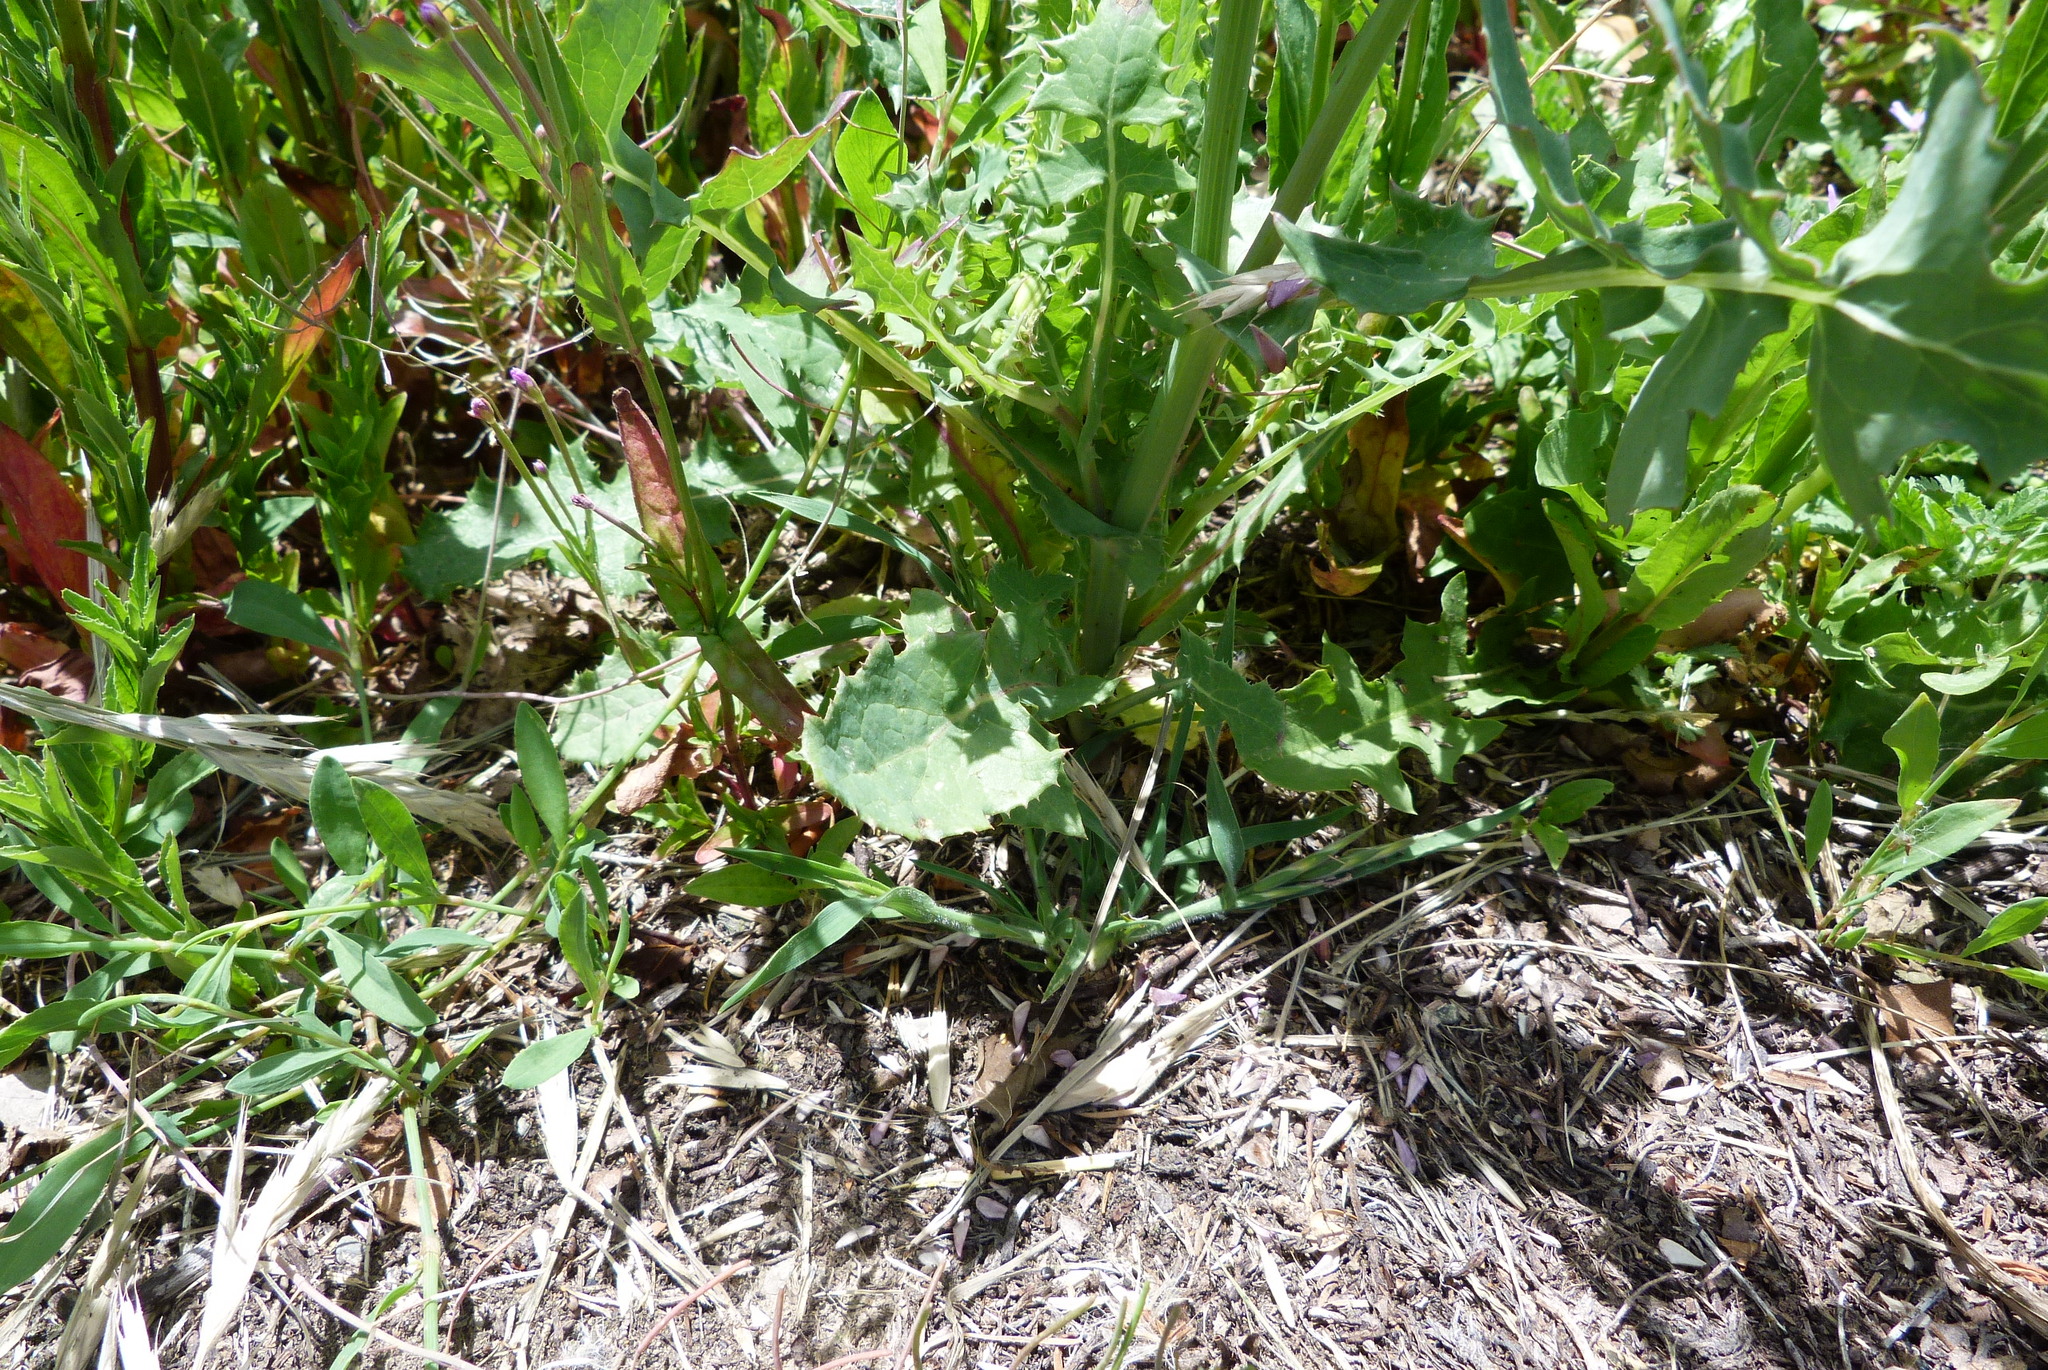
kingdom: Plantae
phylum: Tracheophyta
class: Magnoliopsida
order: Asterales
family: Asteraceae
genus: Sonchus
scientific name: Sonchus oleraceus
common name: Common sowthistle
